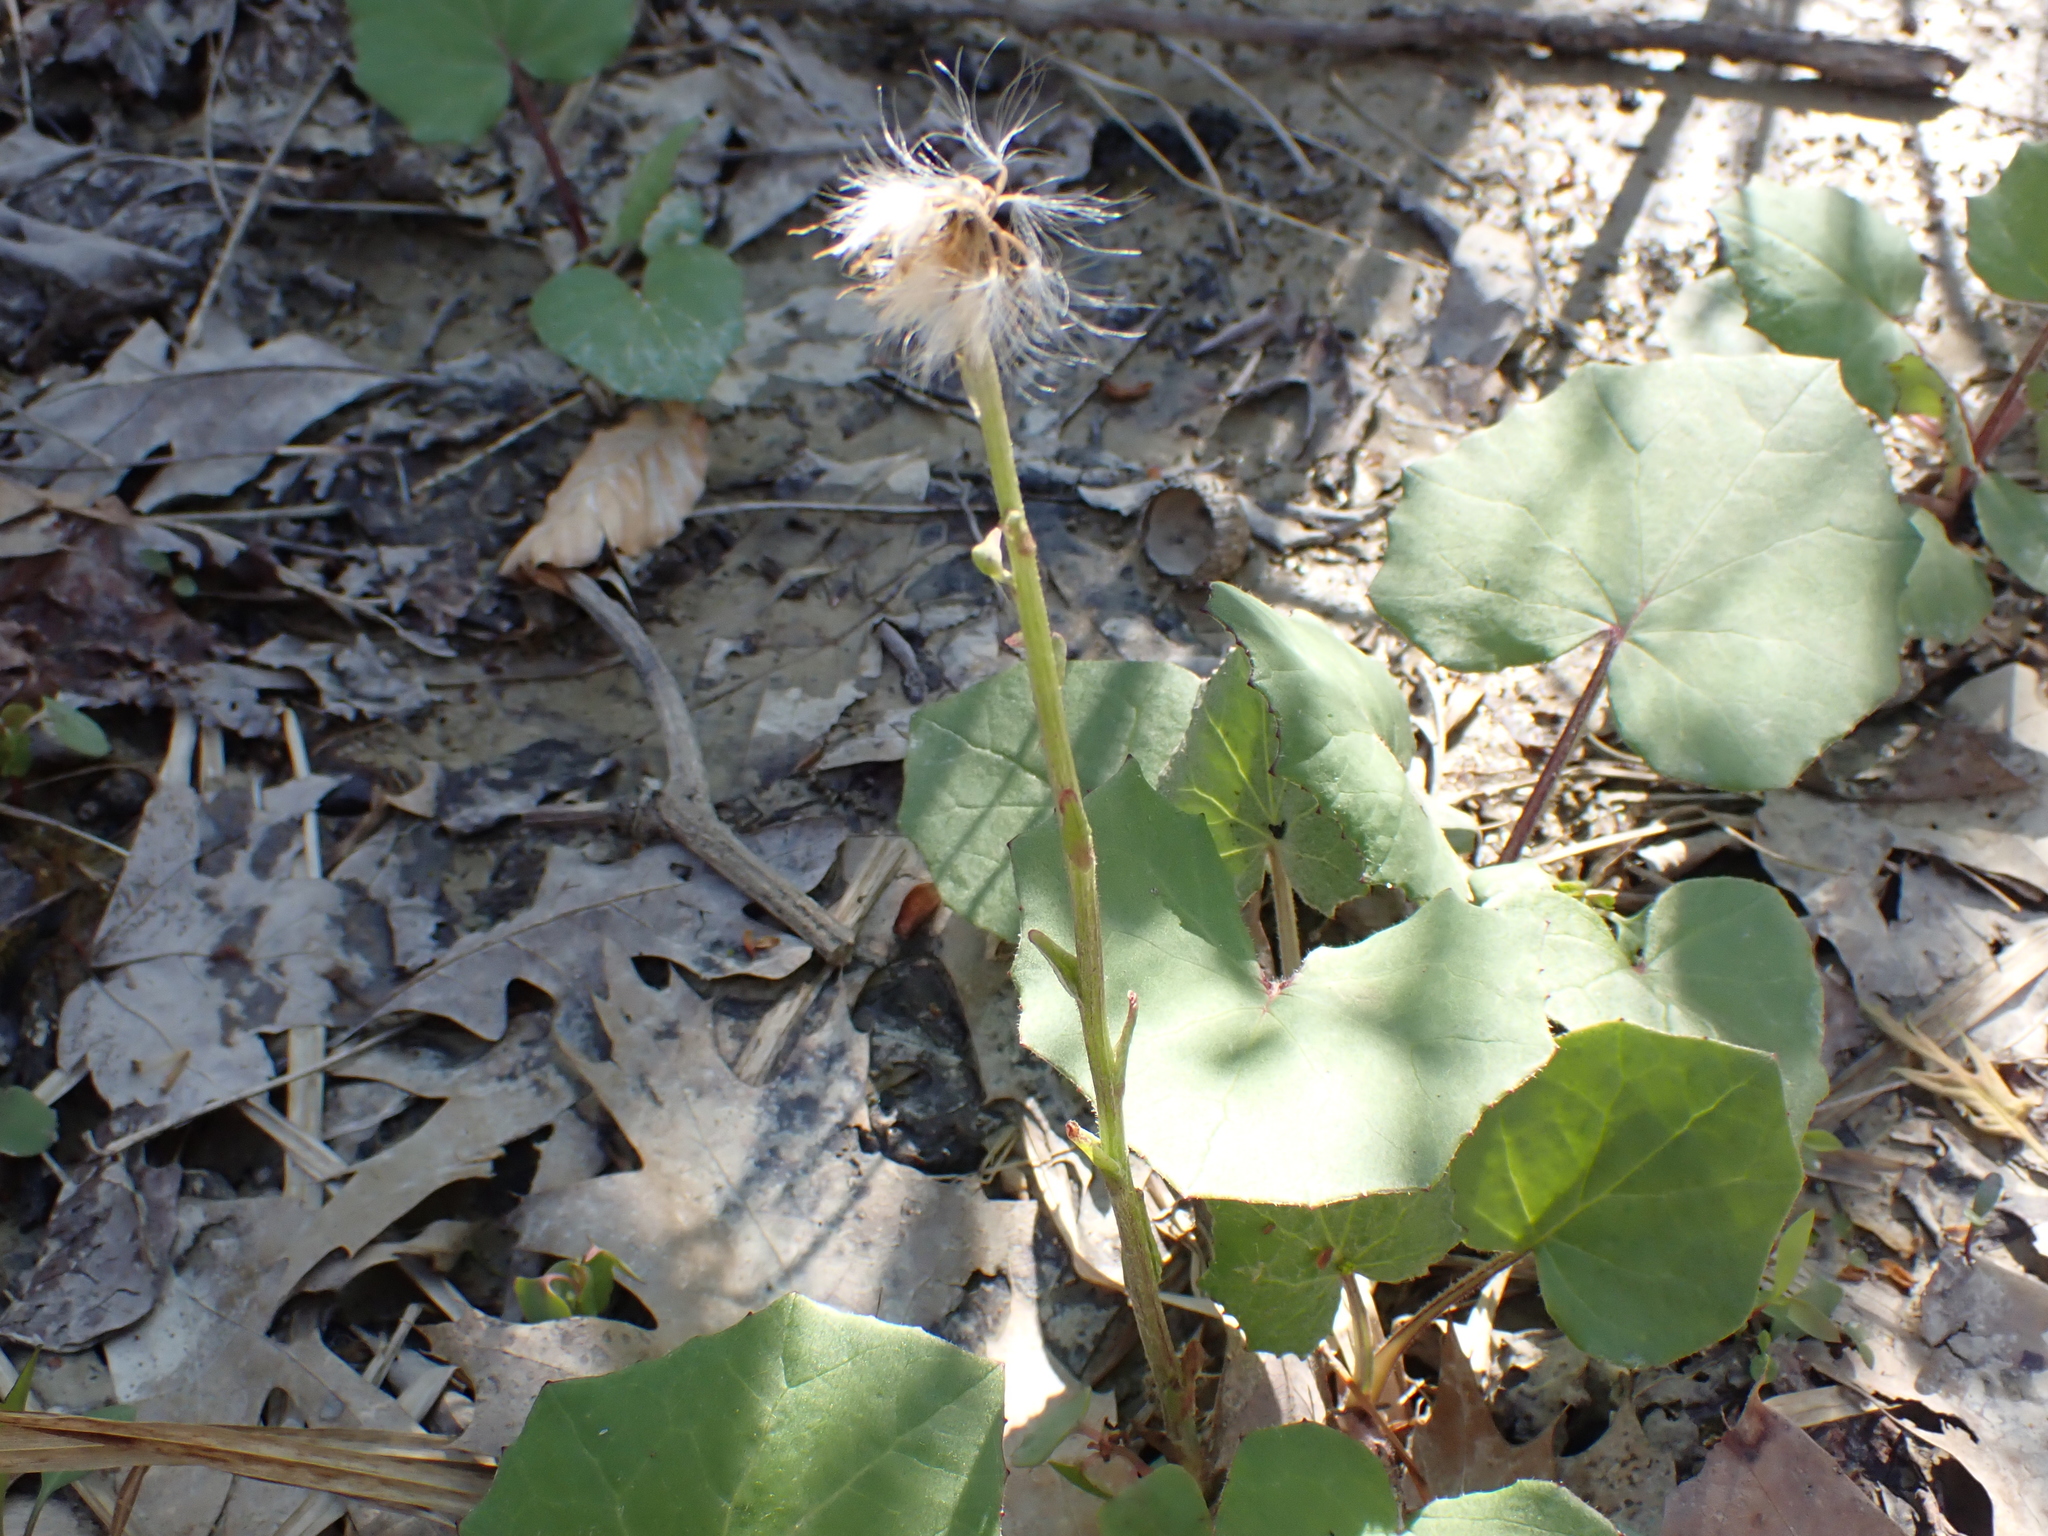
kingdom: Plantae
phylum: Tracheophyta
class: Magnoliopsida
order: Asterales
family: Asteraceae
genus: Tussilago
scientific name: Tussilago farfara
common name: Coltsfoot
